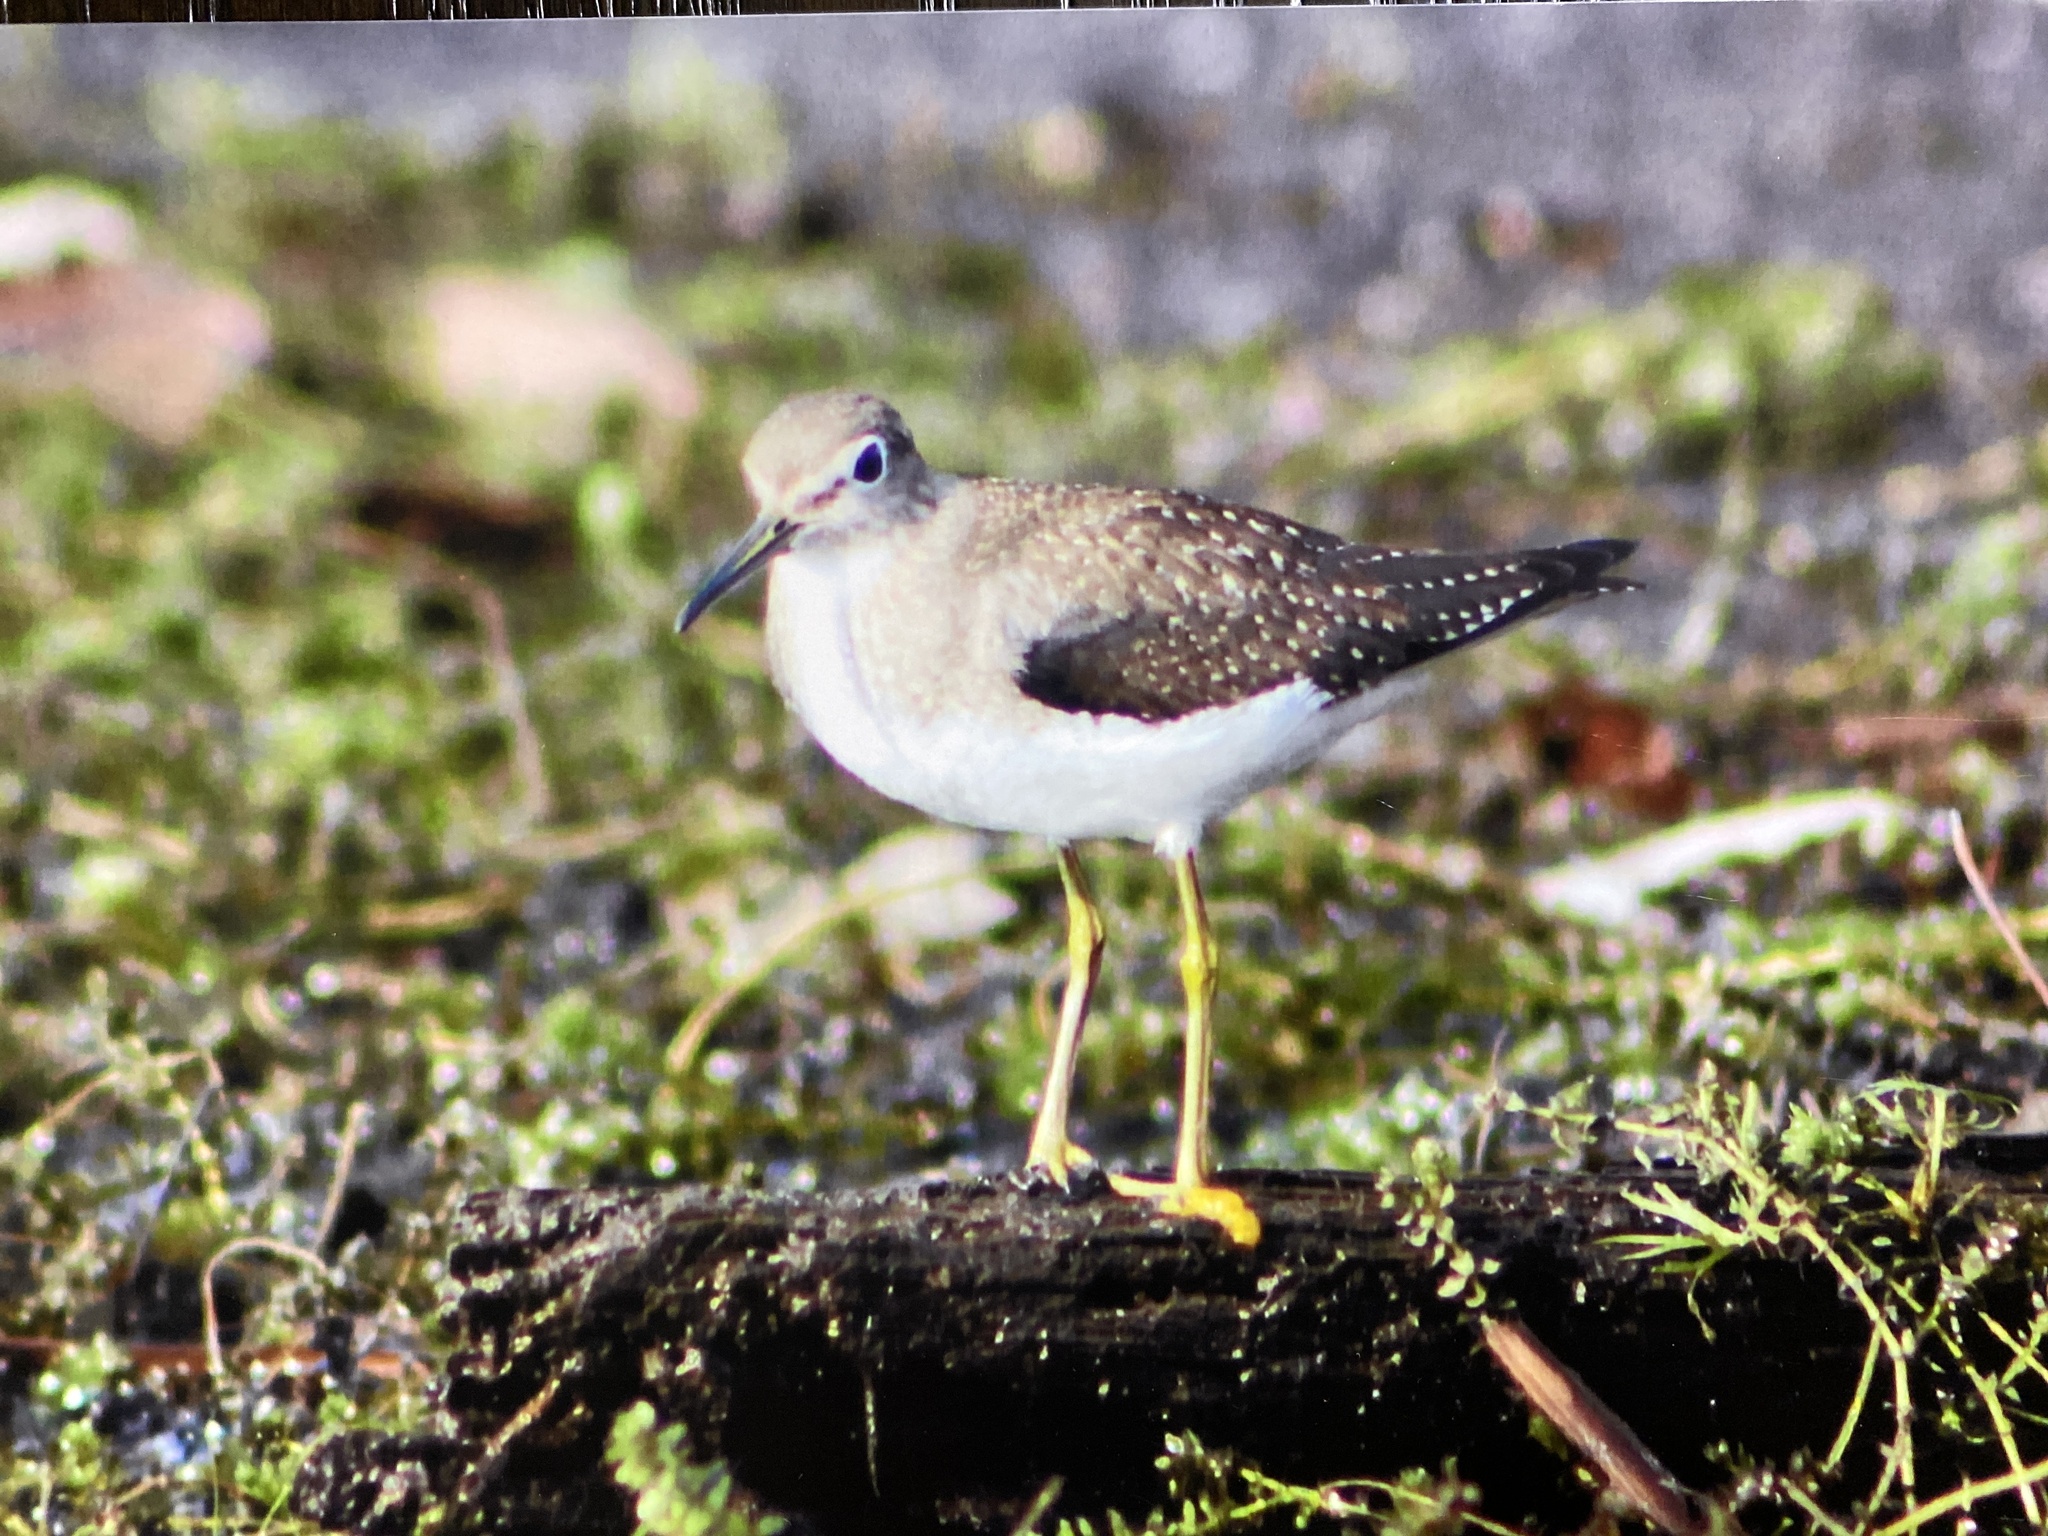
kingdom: Animalia
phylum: Chordata
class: Aves
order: Charadriiformes
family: Scolopacidae
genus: Tringa
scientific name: Tringa solitaria
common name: Solitary sandpiper
